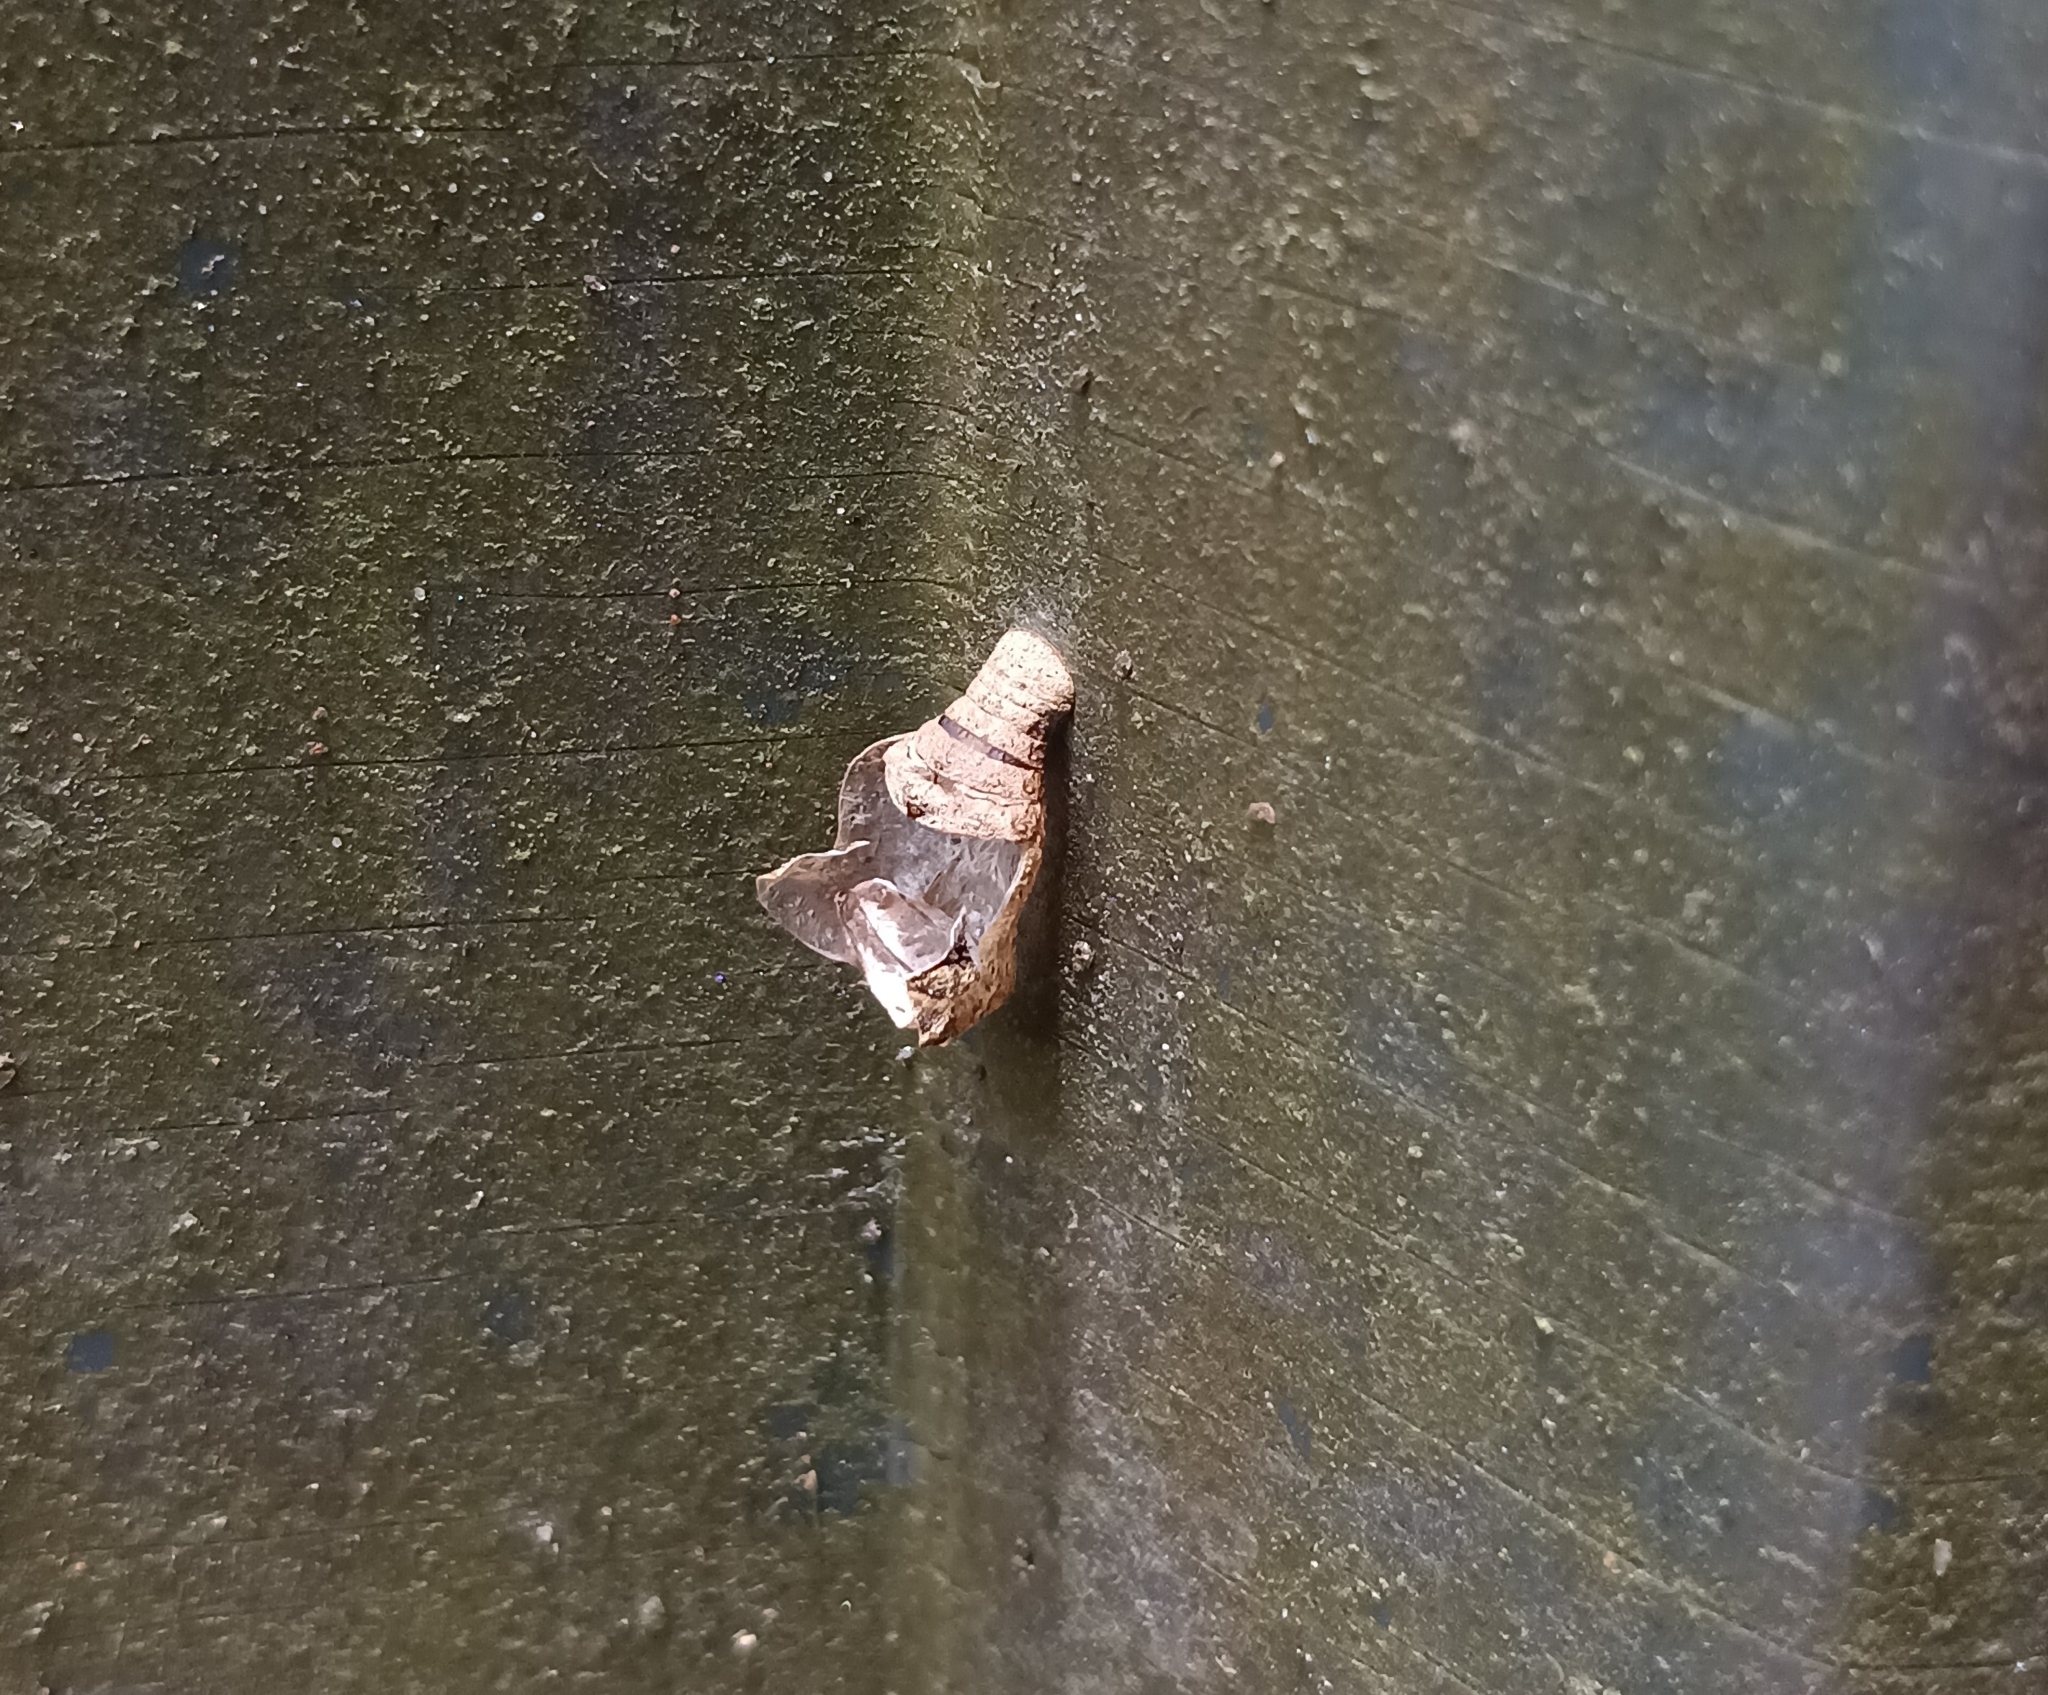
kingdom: Animalia
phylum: Arthropoda
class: Insecta
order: Lepidoptera
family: Lycaenidae
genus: Tajuria
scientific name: Tajuria cippus
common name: Peacock royal
